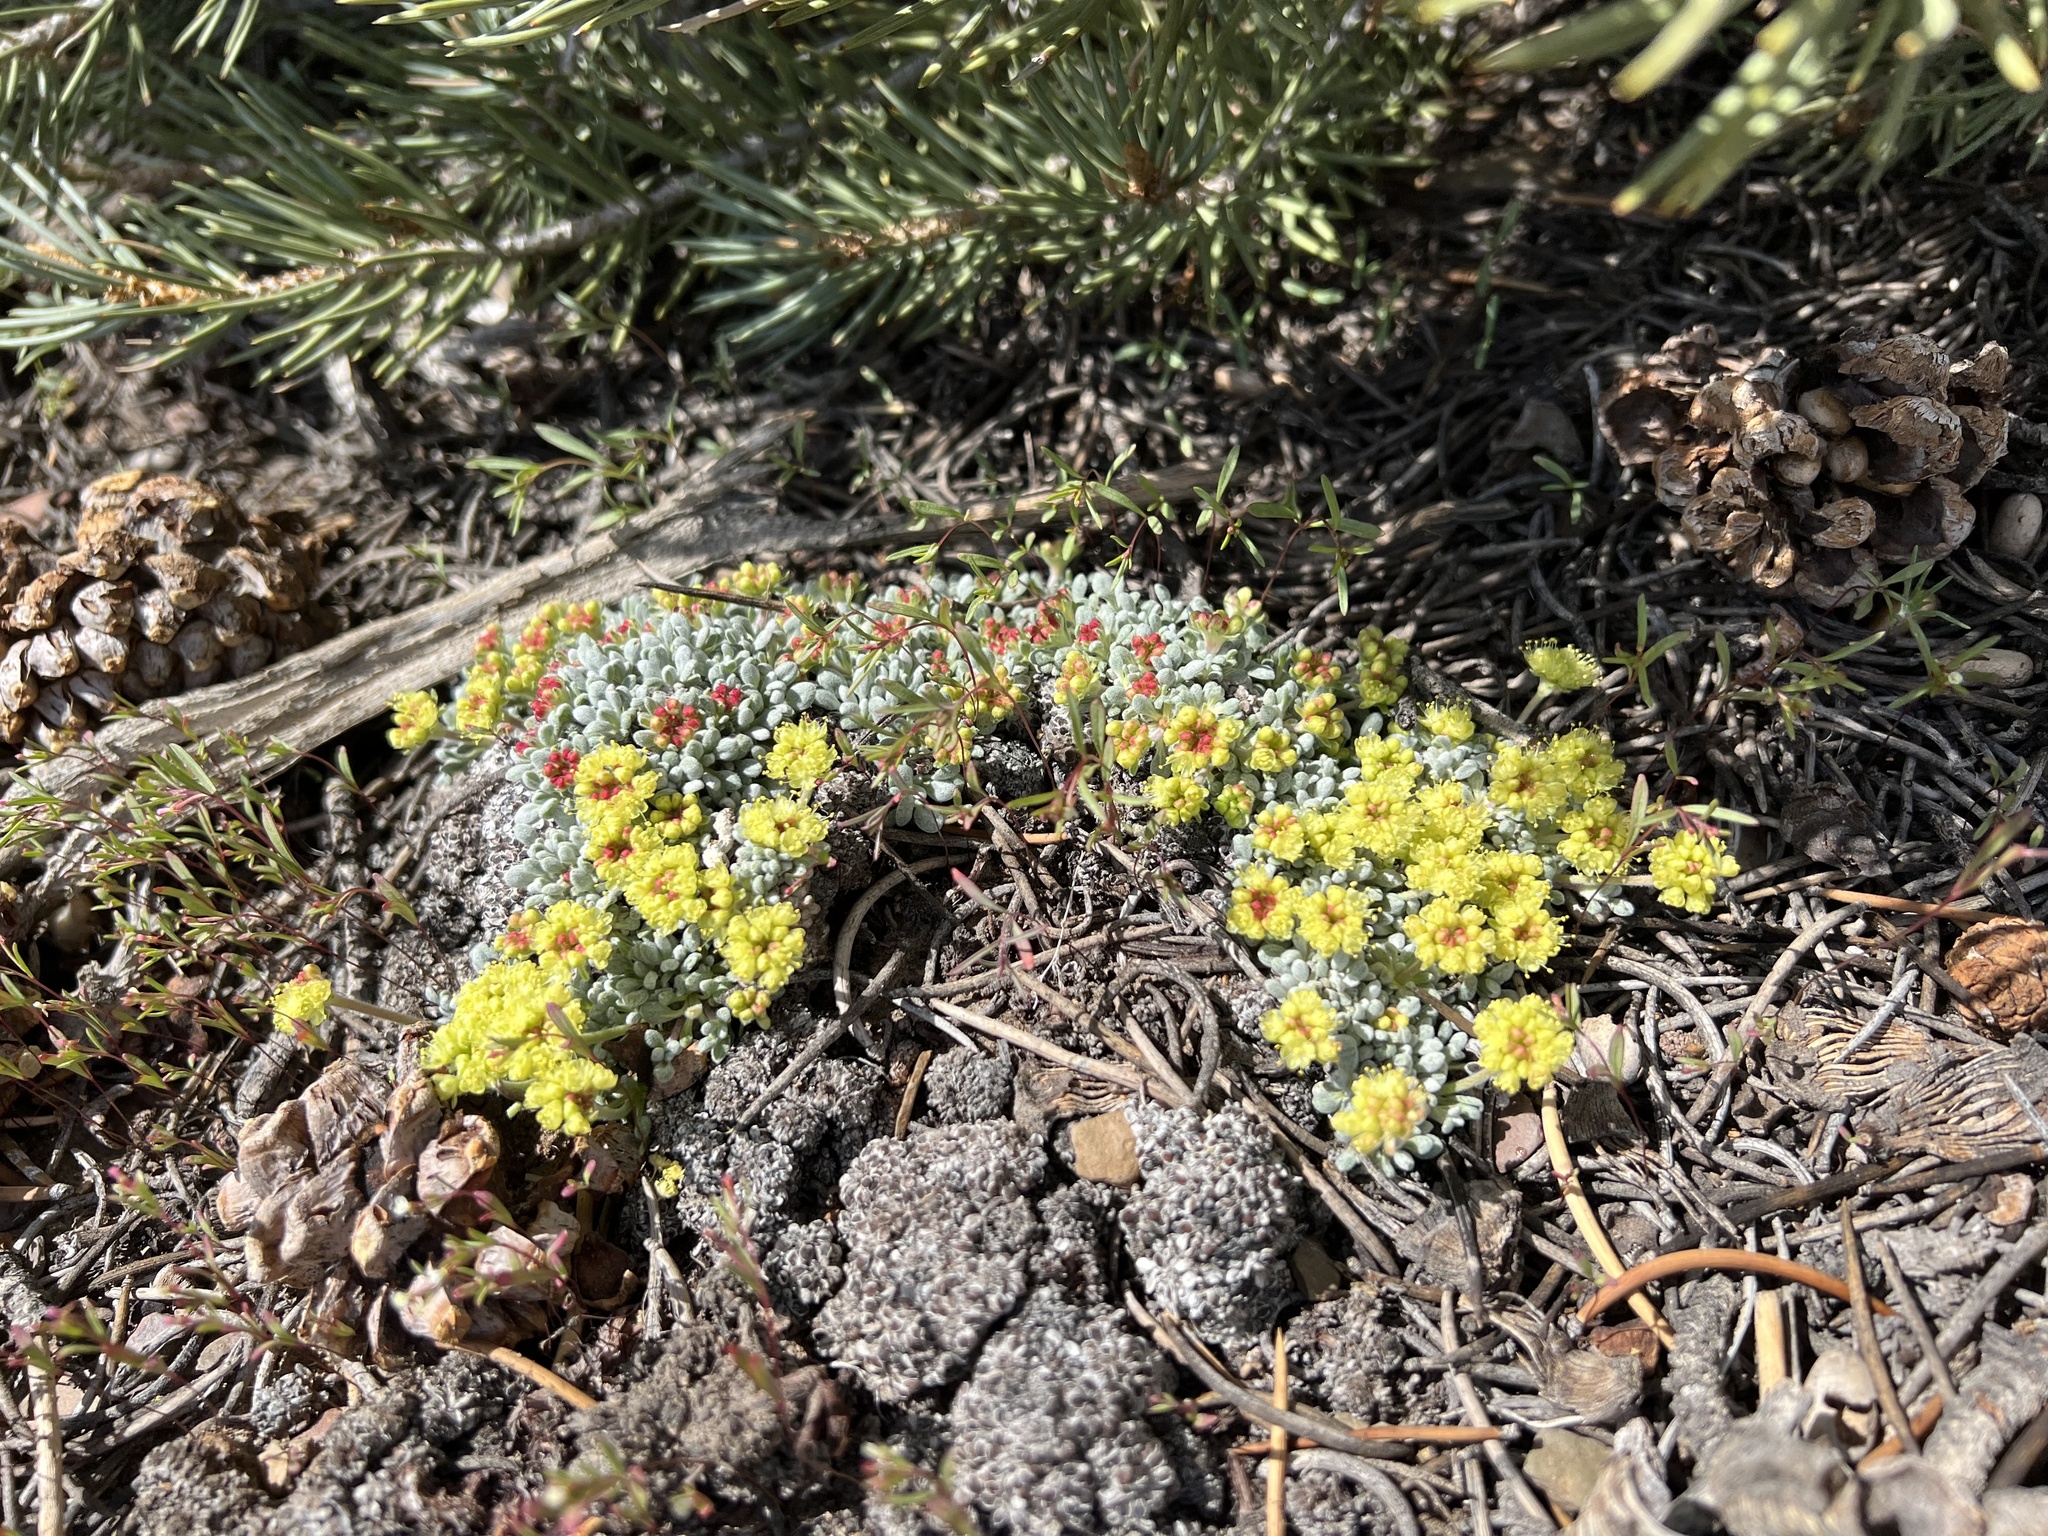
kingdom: Plantae
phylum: Tracheophyta
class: Magnoliopsida
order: Caryophyllales
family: Polygonaceae
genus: Eriogonum
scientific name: Eriogonum caespitosum
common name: Matted wild buckwheat
